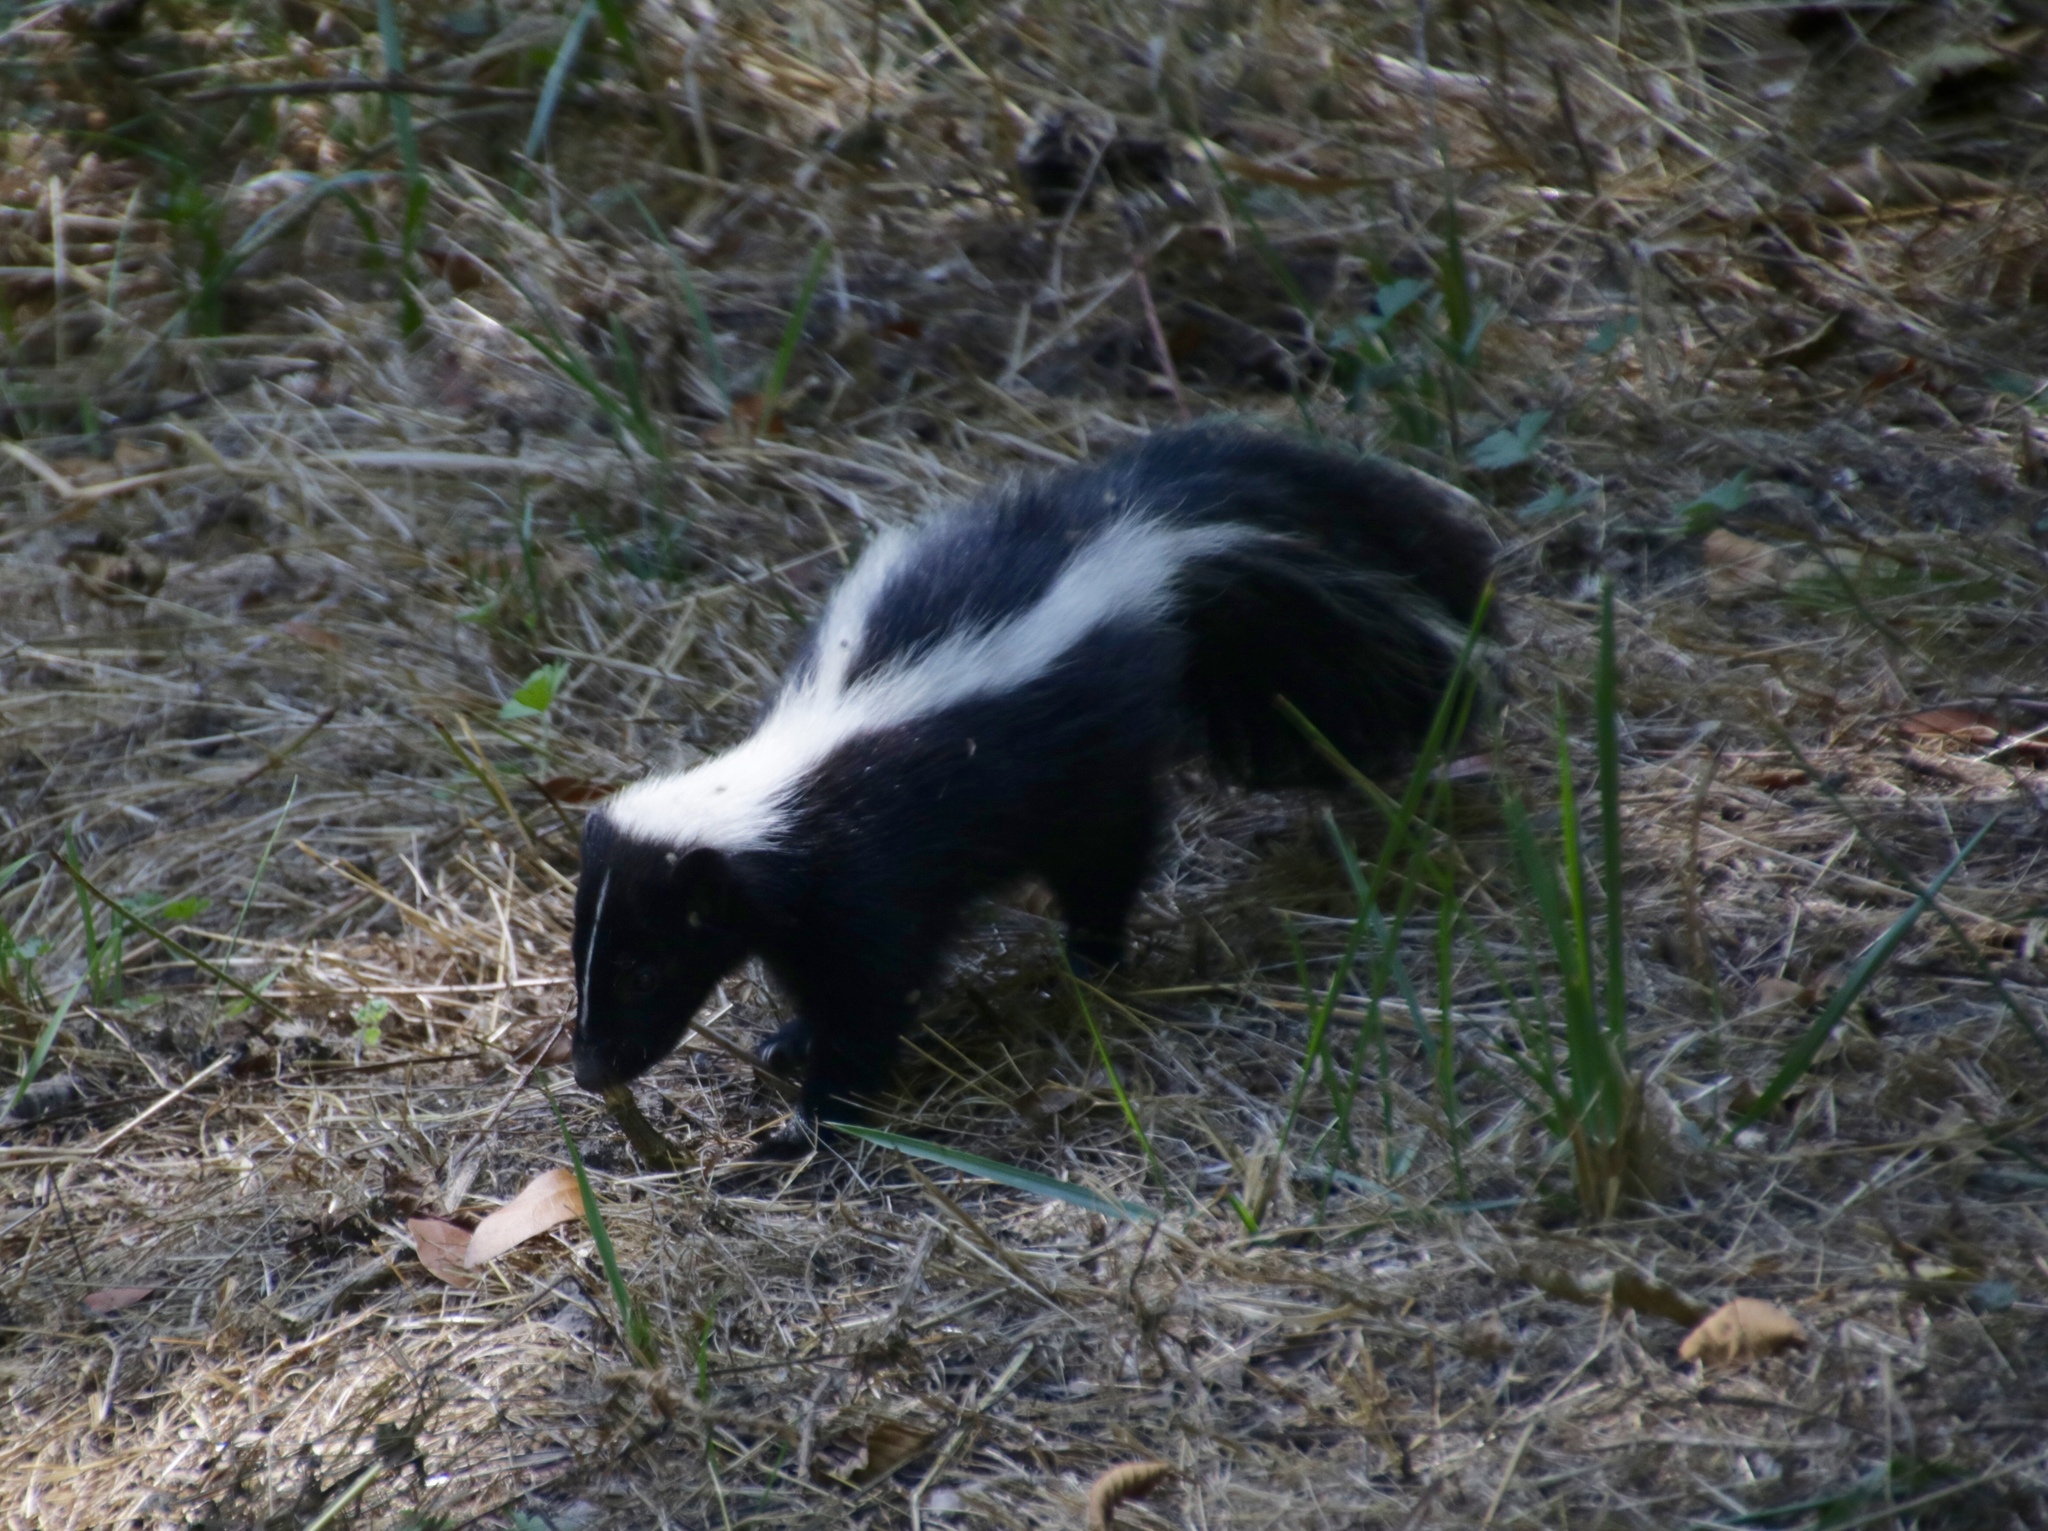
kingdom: Animalia
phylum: Chordata
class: Mammalia
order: Carnivora
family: Mephitidae
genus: Mephitis
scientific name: Mephitis mephitis
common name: Striped skunk
